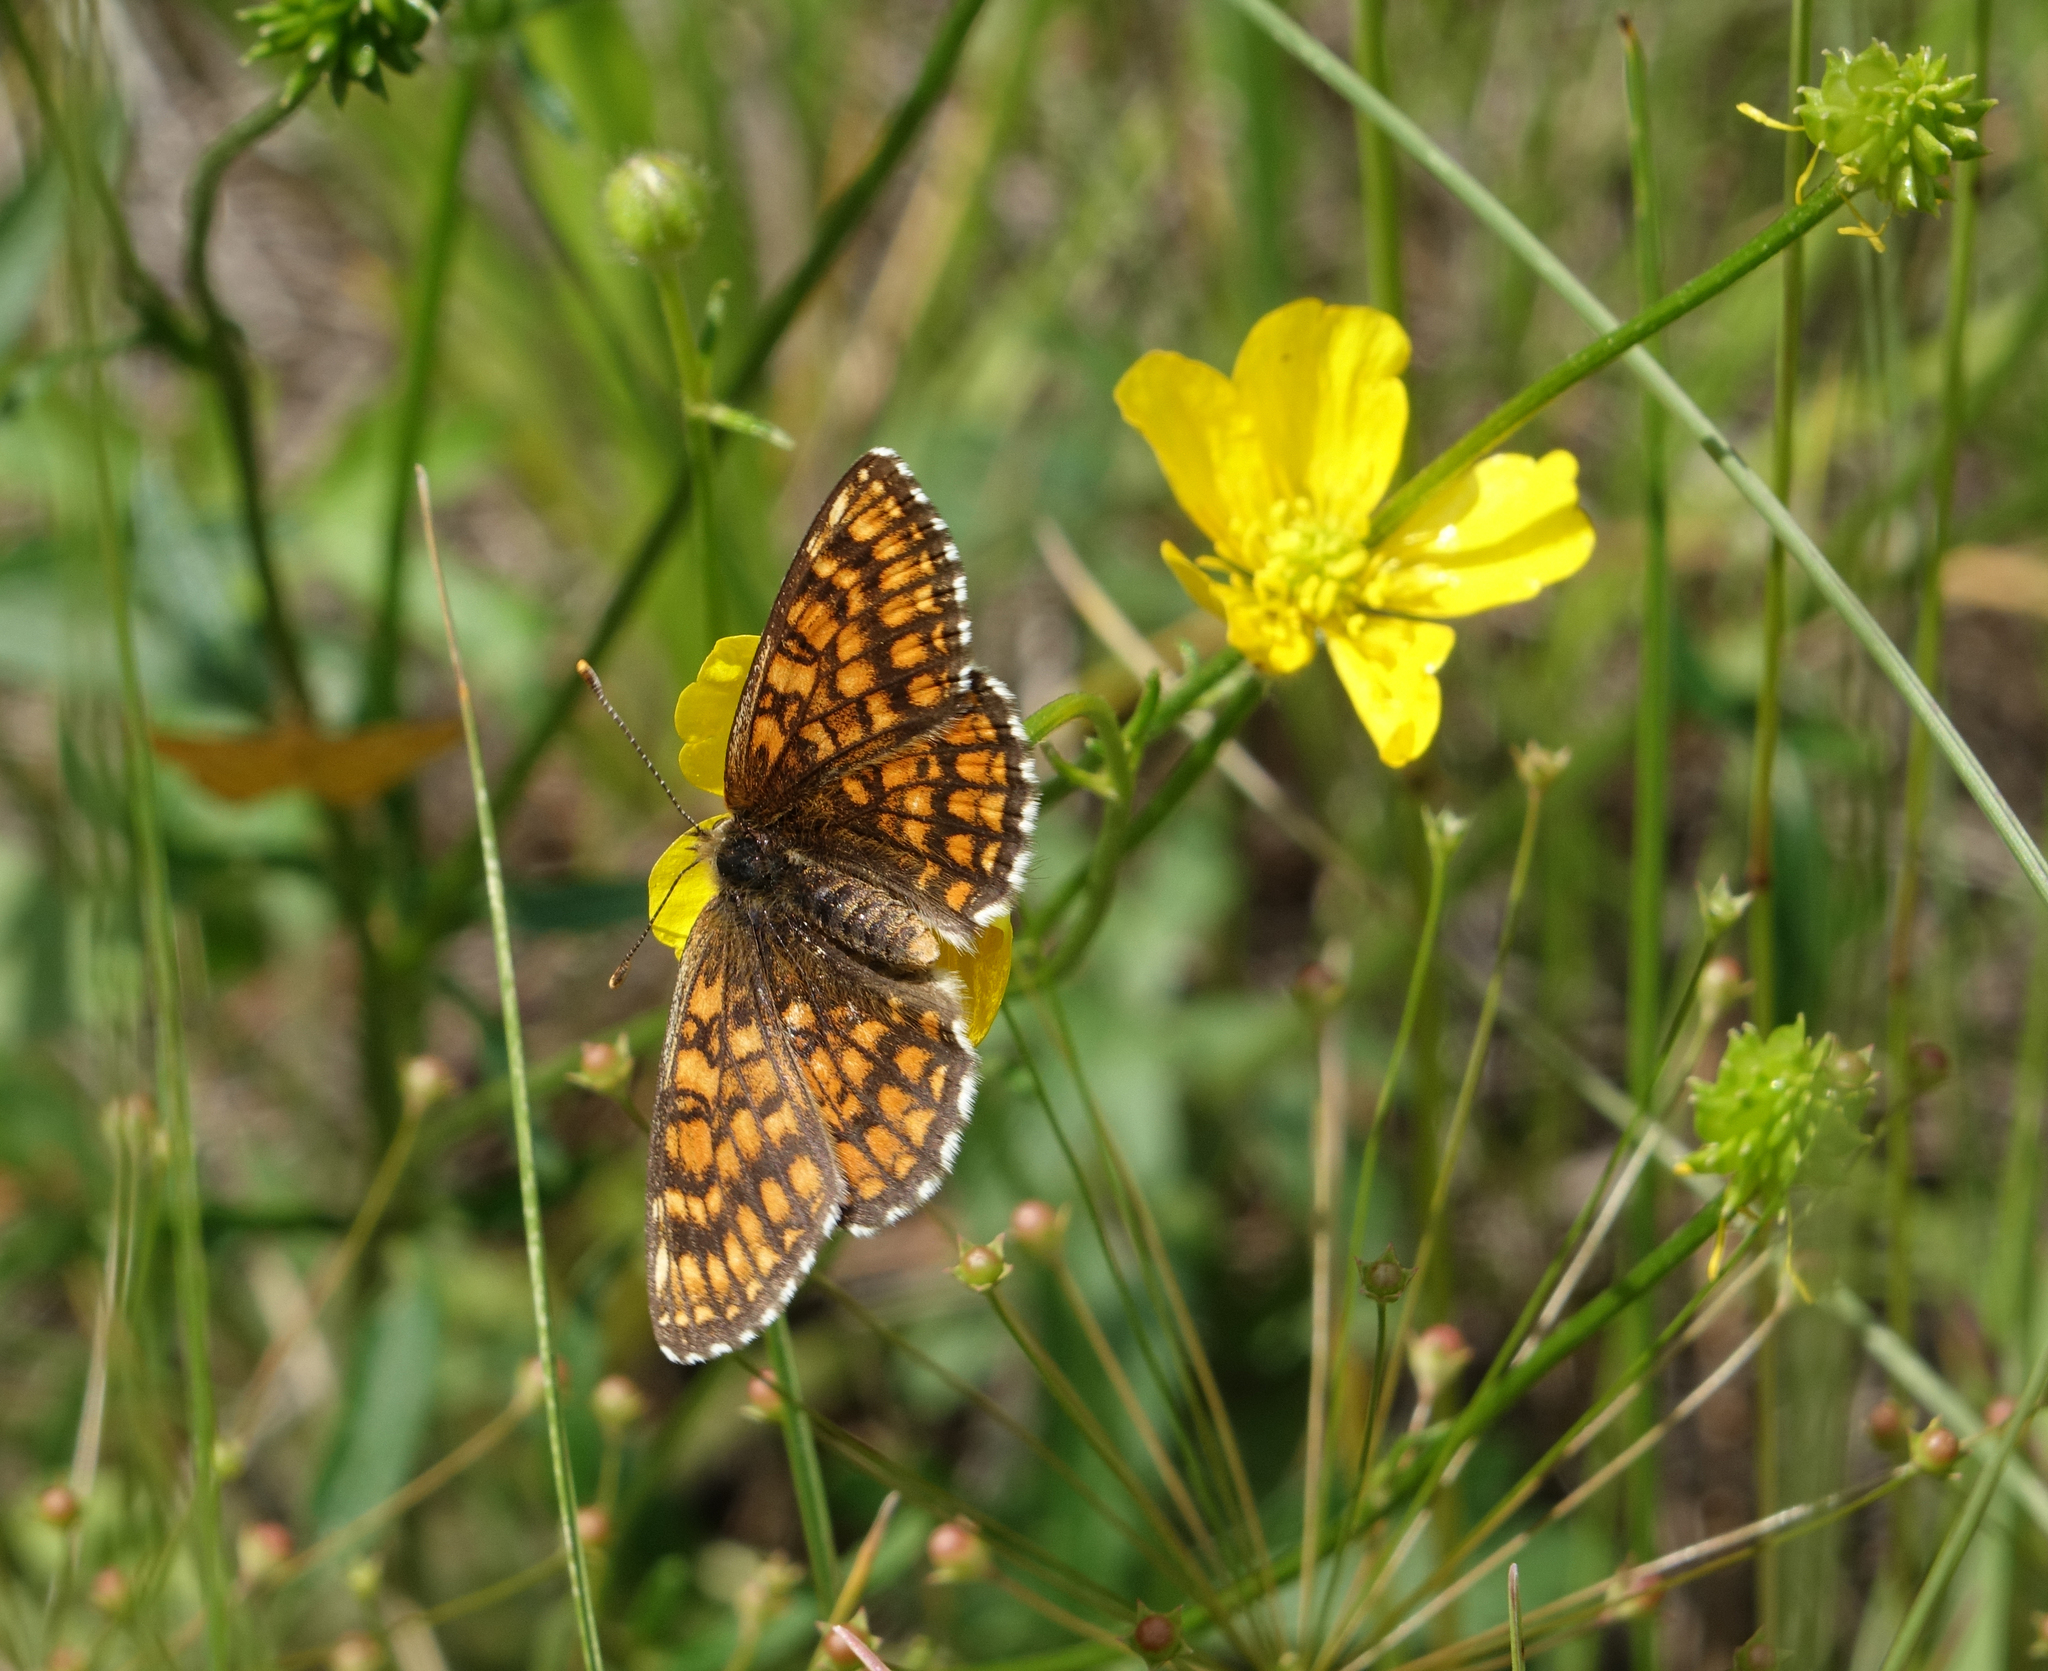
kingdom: Animalia
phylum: Arthropoda
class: Insecta
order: Lepidoptera
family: Nymphalidae
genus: Melitaea
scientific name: Melitaea
